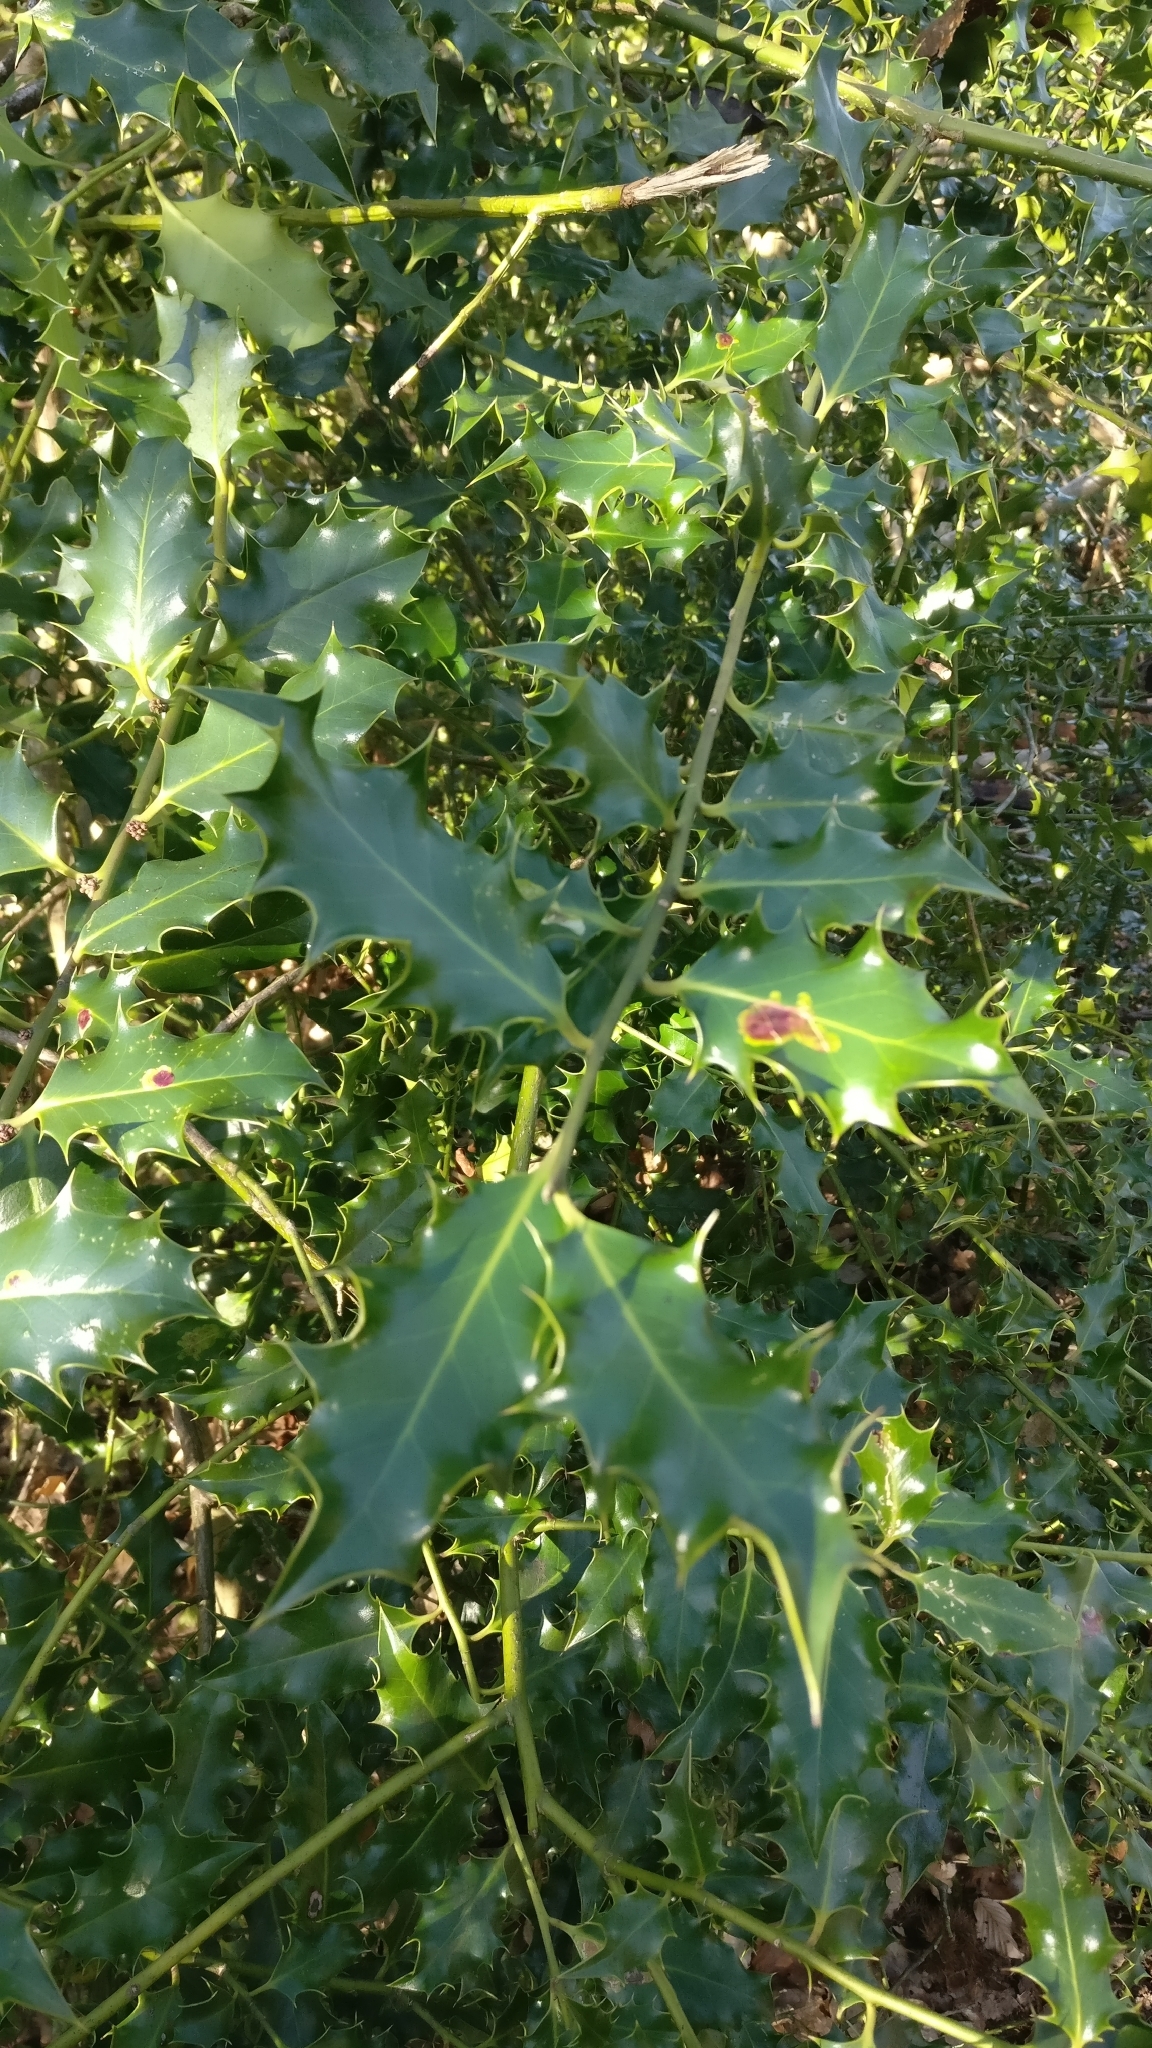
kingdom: Plantae
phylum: Tracheophyta
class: Magnoliopsida
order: Aquifoliales
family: Aquifoliaceae
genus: Ilex
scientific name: Ilex aquifolium
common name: English holly
